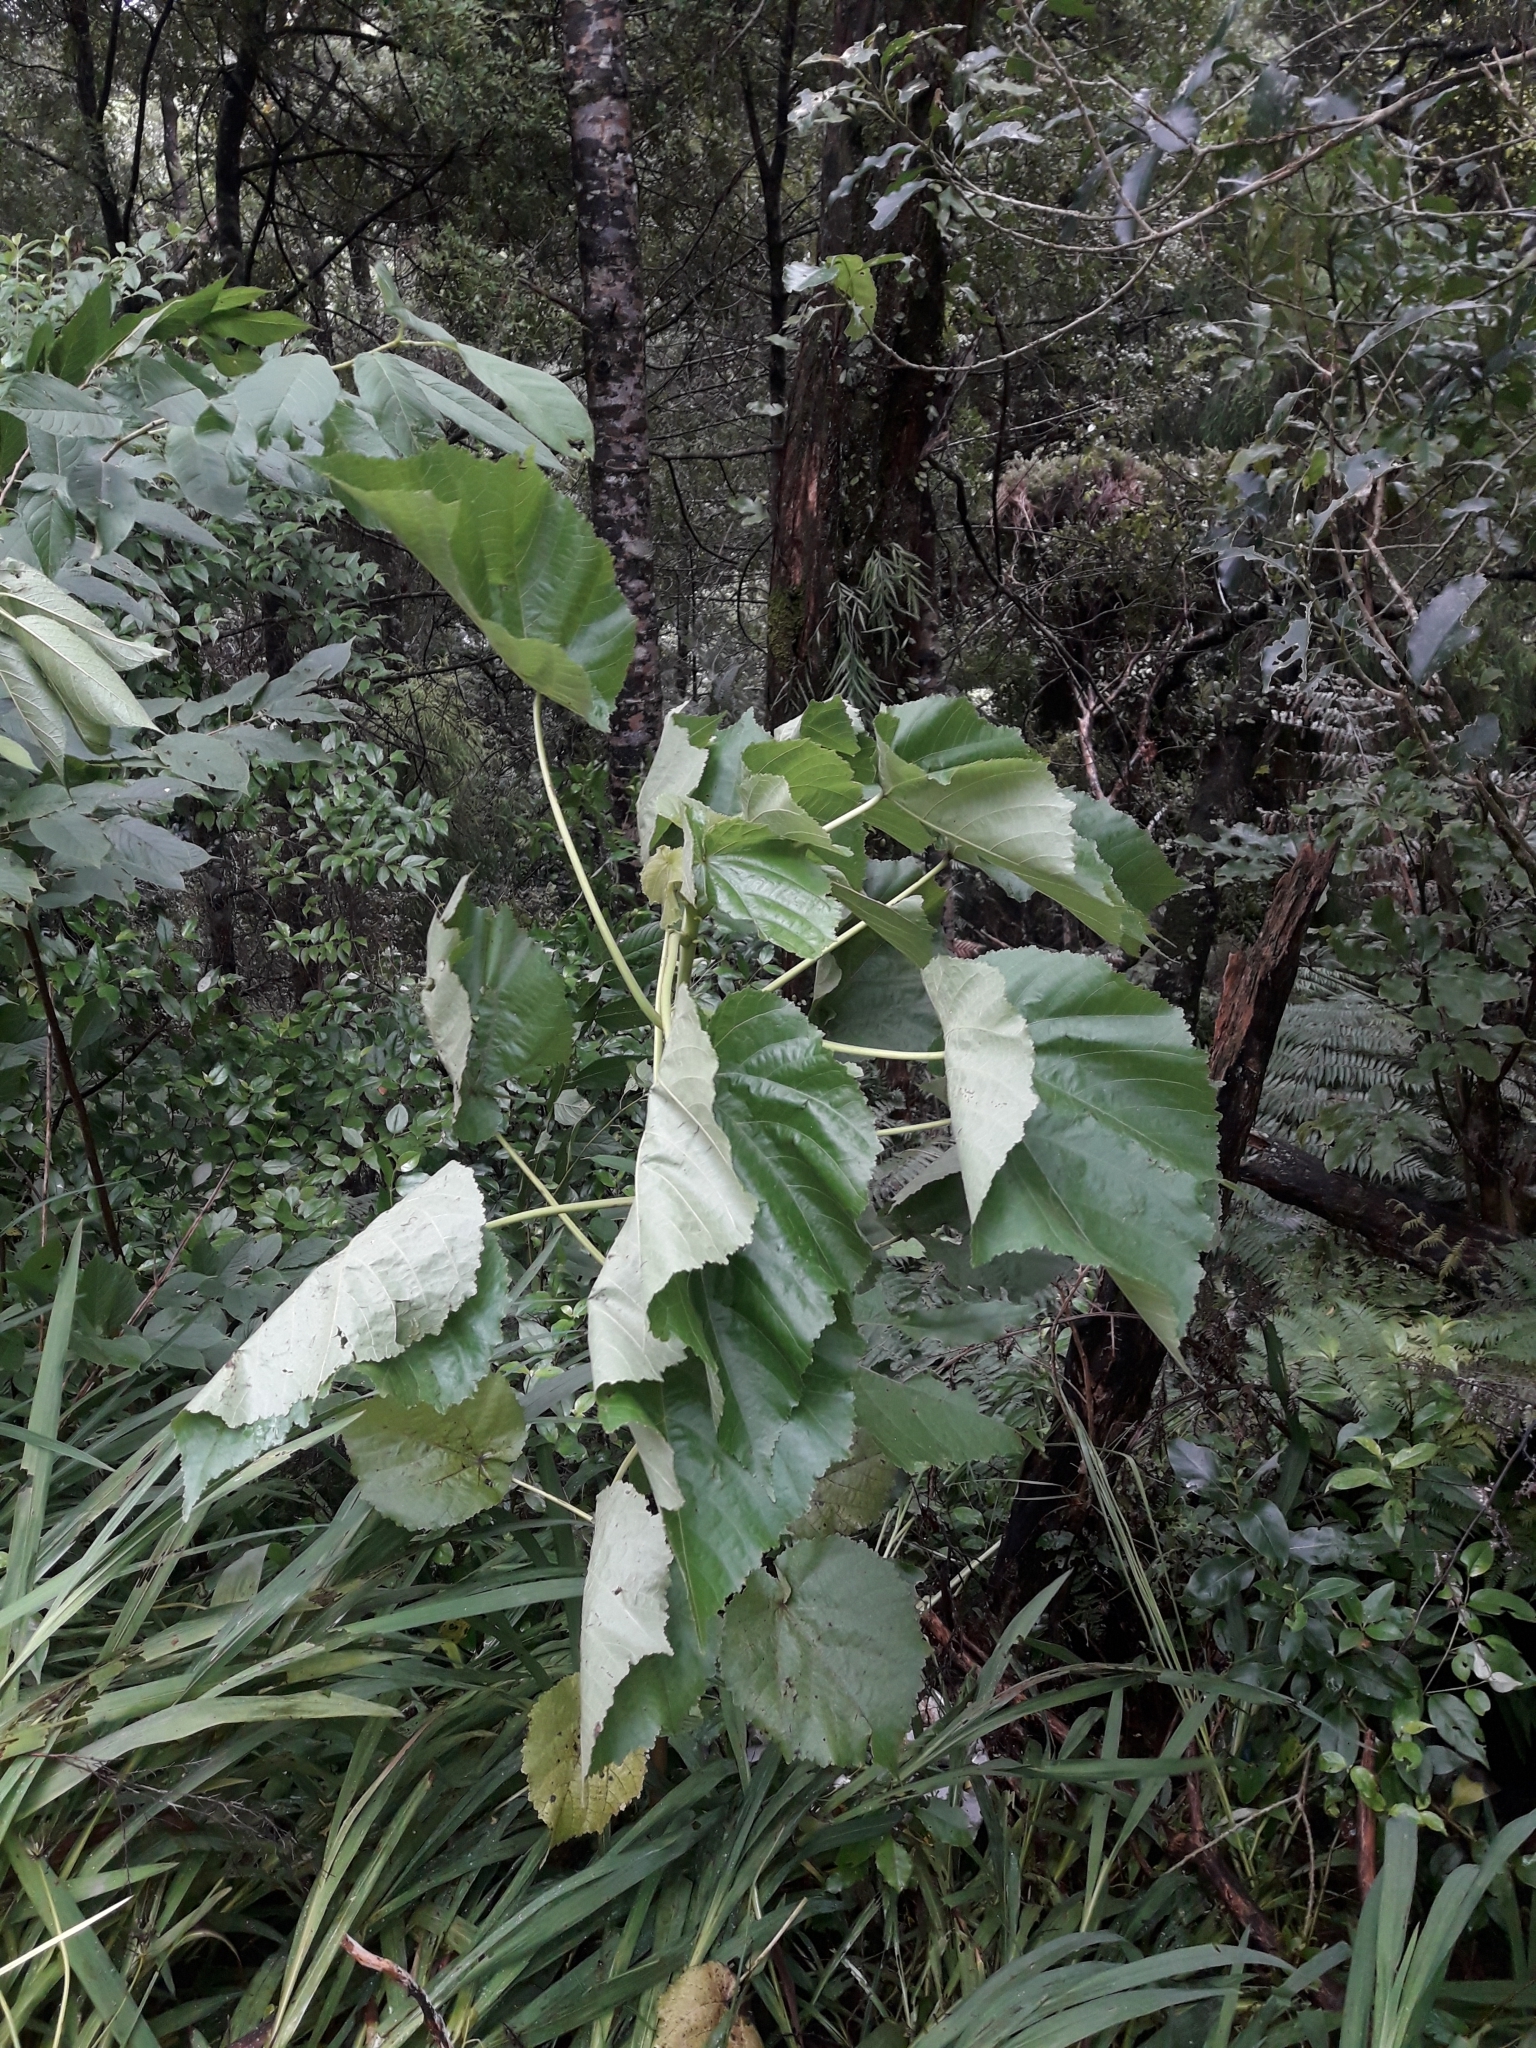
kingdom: Plantae
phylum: Tracheophyta
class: Magnoliopsida
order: Malvales
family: Malvaceae
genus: Entelea
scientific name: Entelea arborescens
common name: New zealand-mulberry
